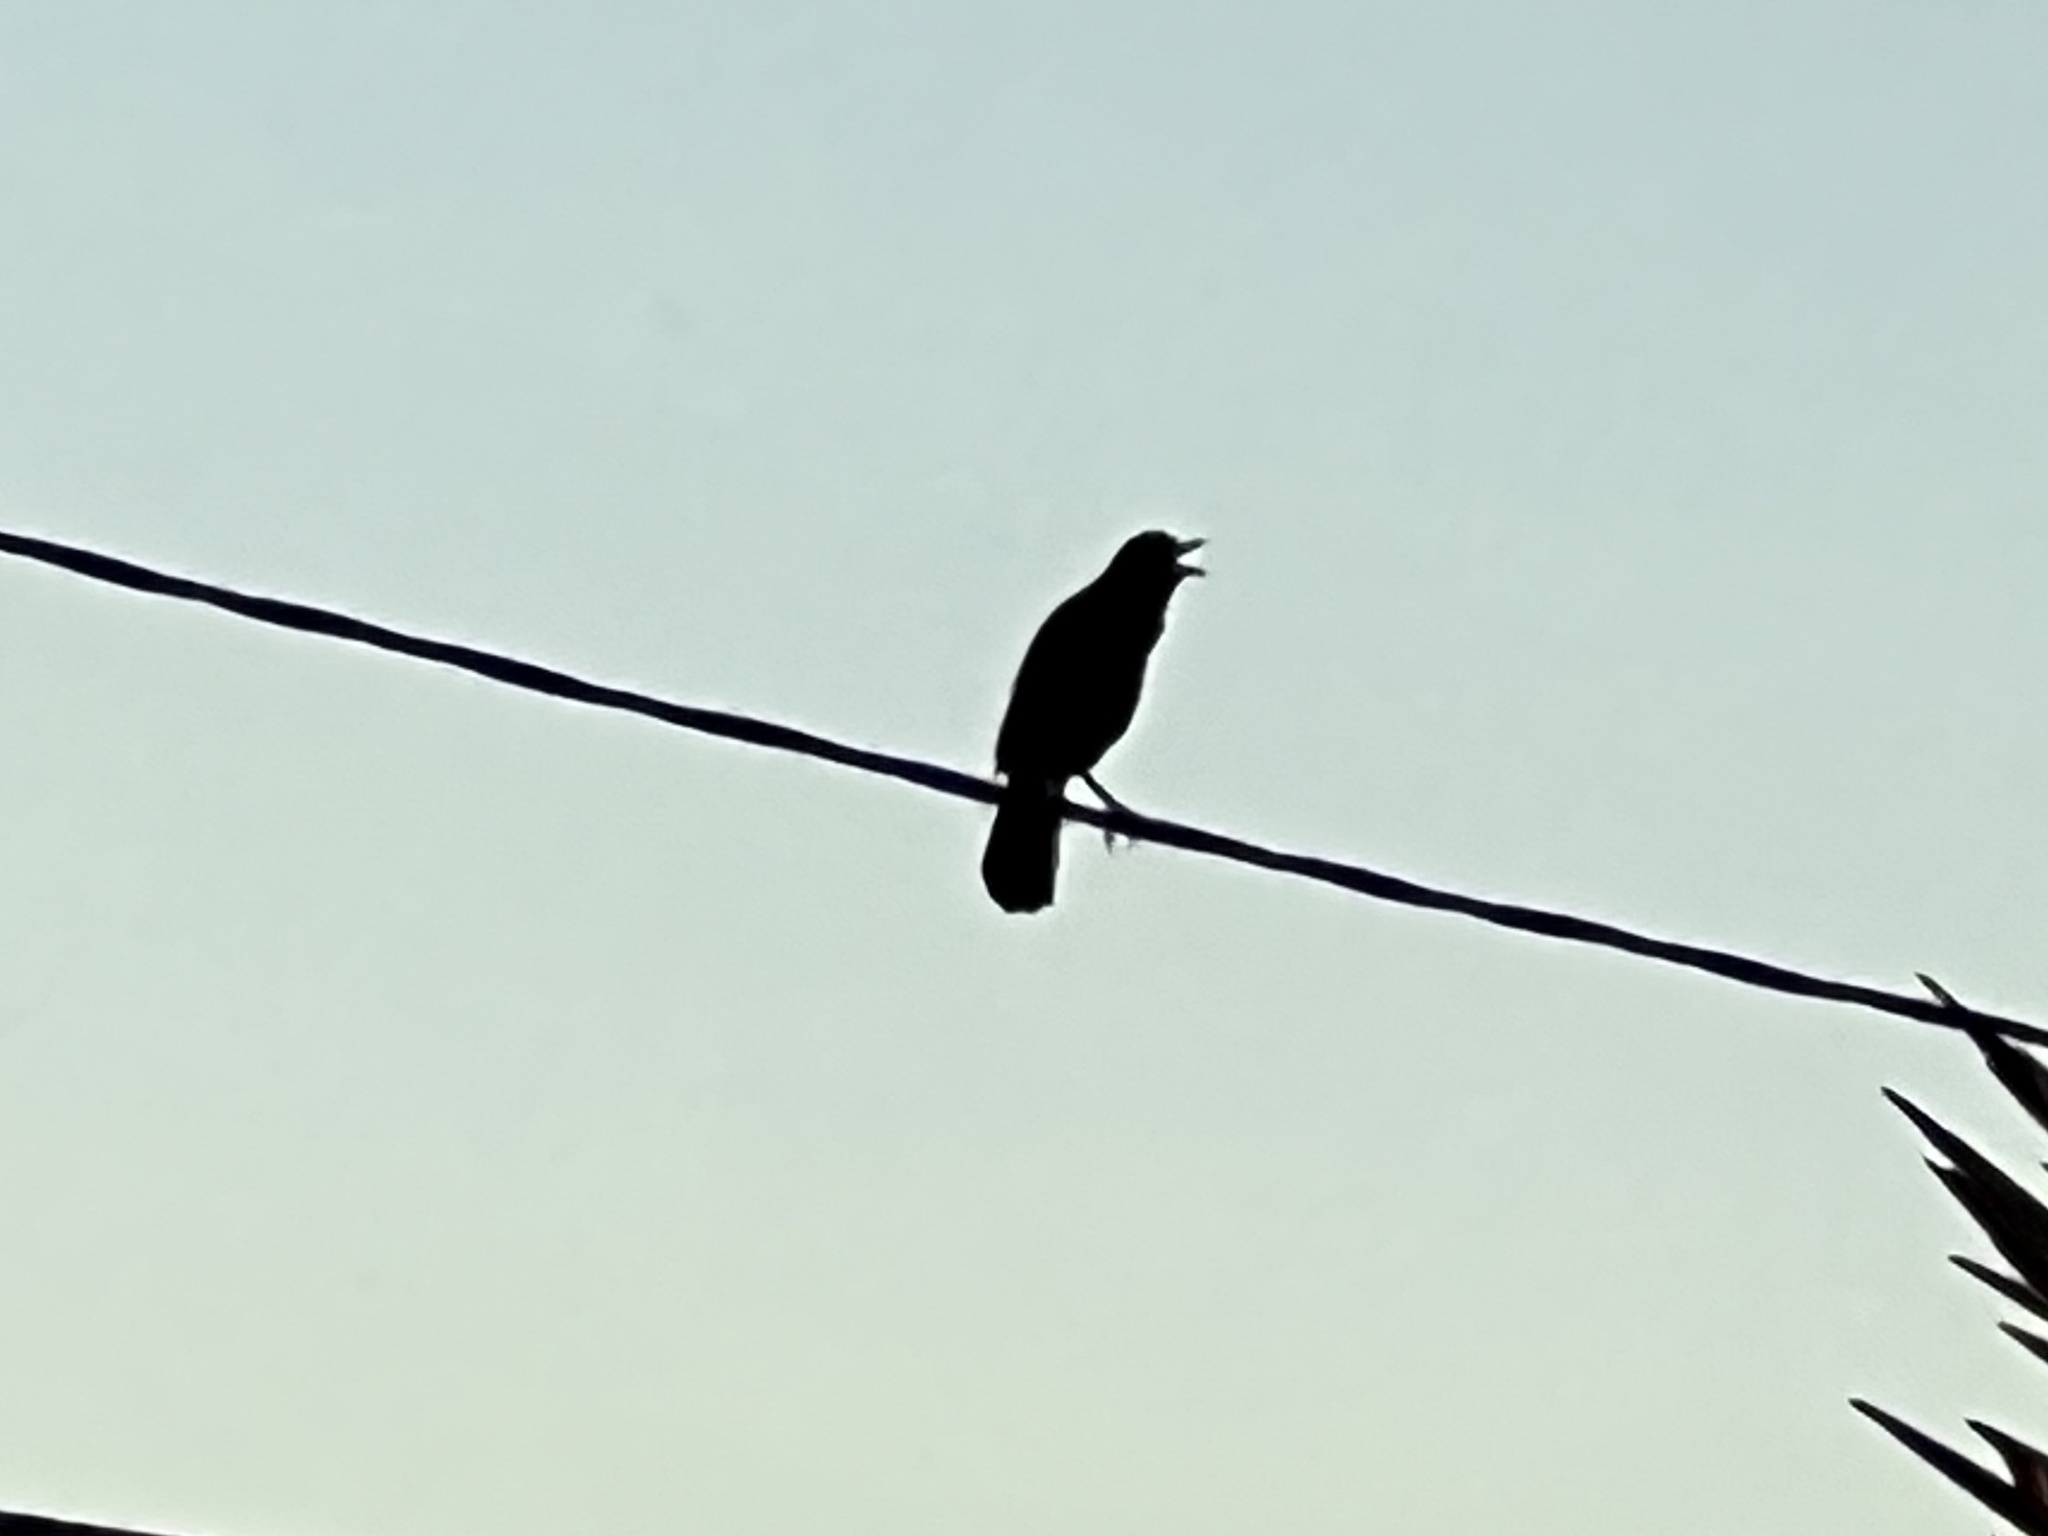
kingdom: Animalia
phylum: Chordata
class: Aves
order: Passeriformes
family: Icteridae
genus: Quiscalus
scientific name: Quiscalus mexicanus
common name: Great-tailed grackle
